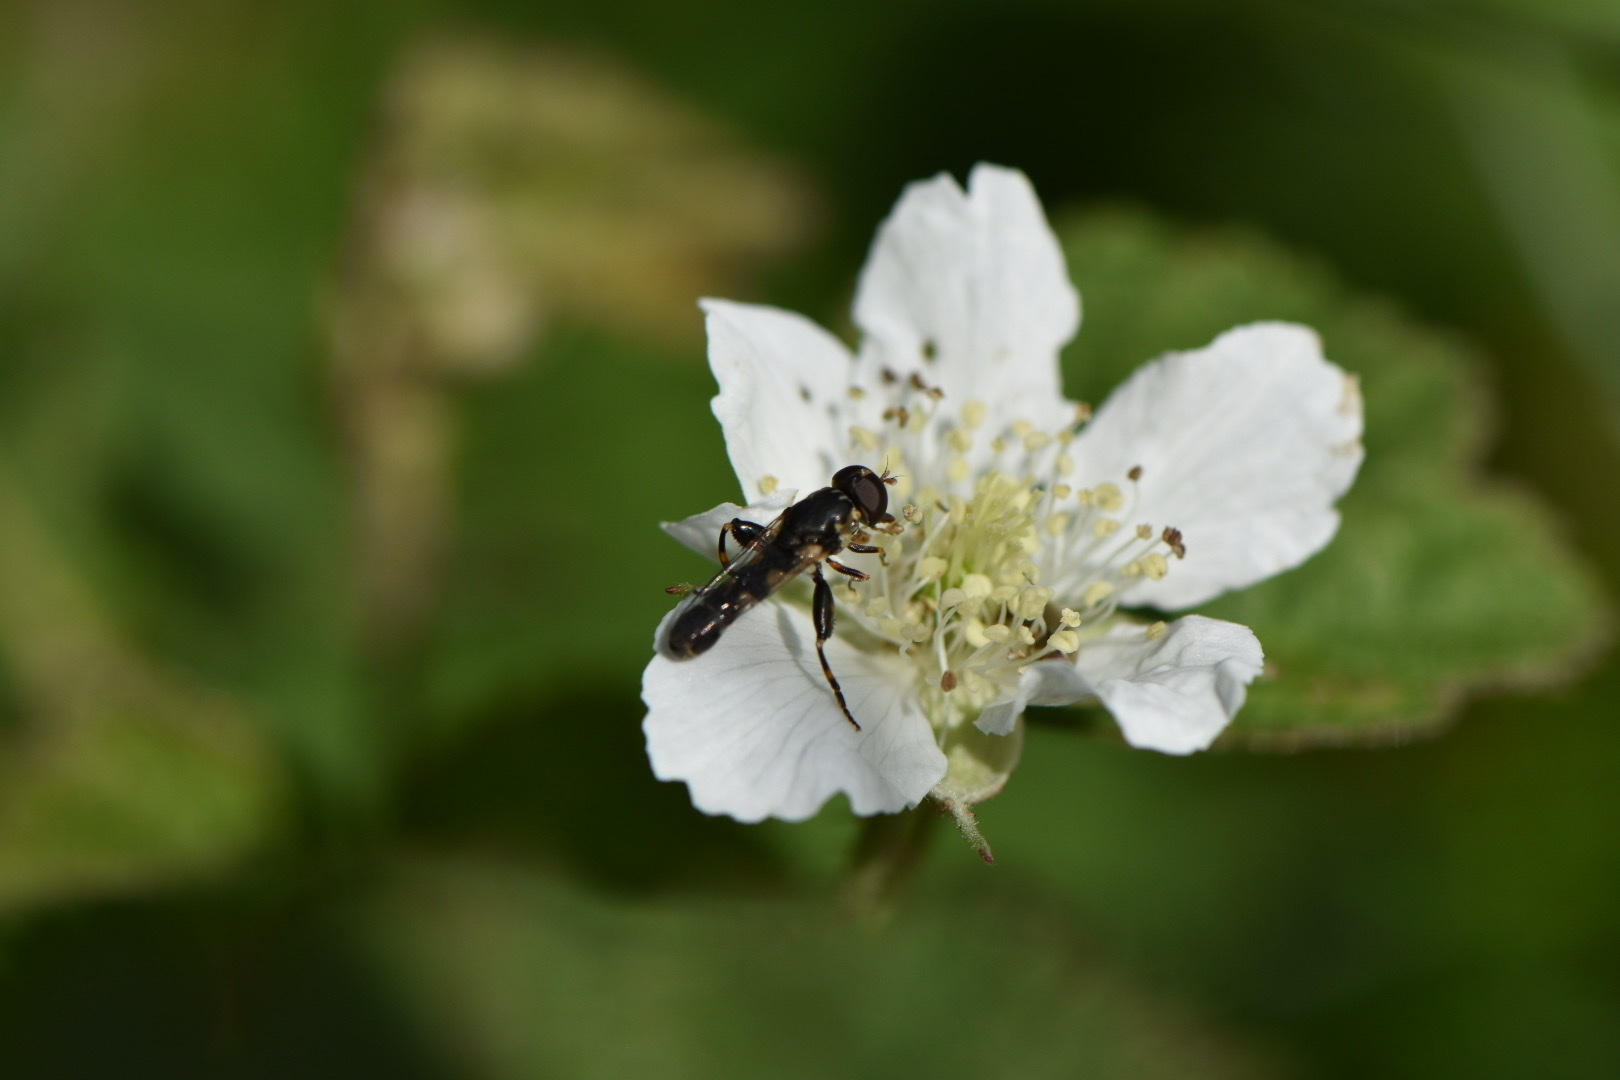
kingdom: Animalia
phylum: Arthropoda
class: Insecta
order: Diptera
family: Syrphidae
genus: Syritta
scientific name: Syritta pipiens
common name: Hover fly
